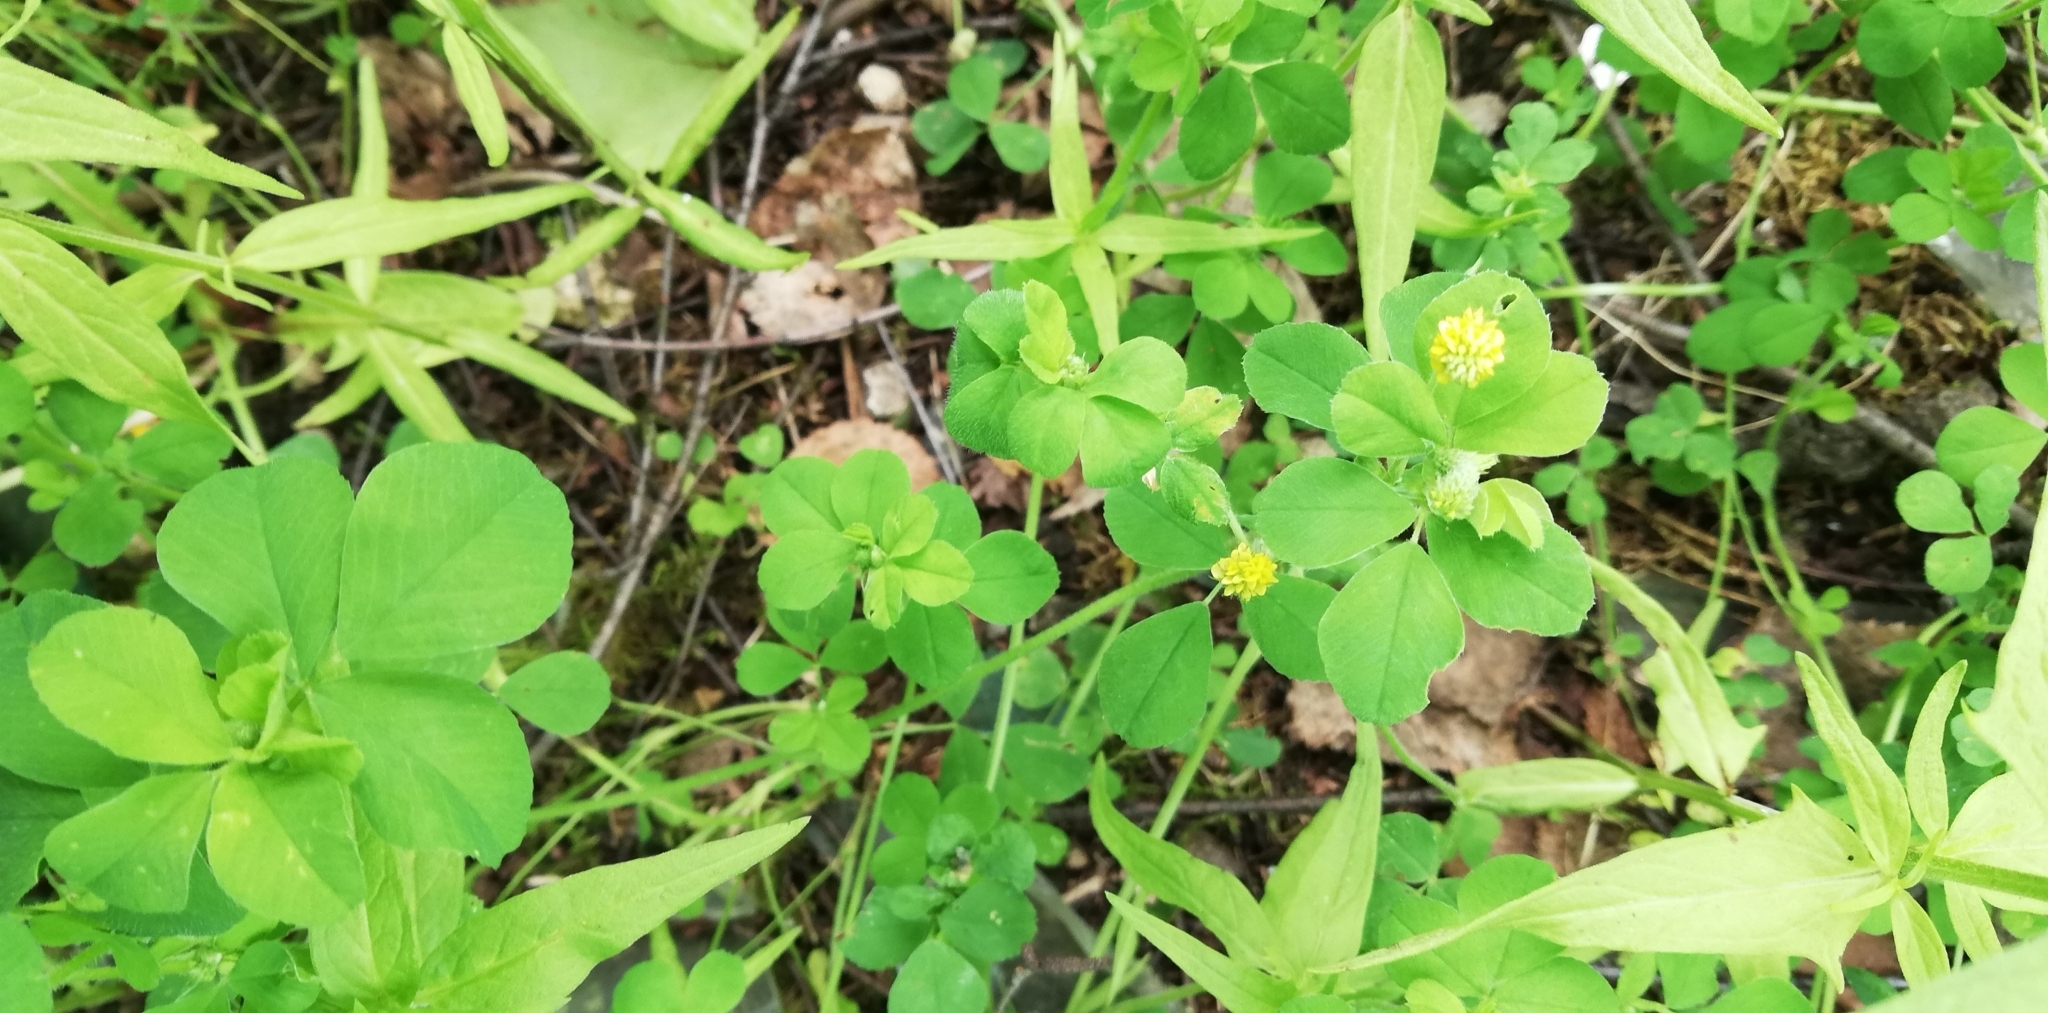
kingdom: Plantae
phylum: Tracheophyta
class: Magnoliopsida
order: Fabales
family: Fabaceae
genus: Medicago
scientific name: Medicago lupulina
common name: Black medick
